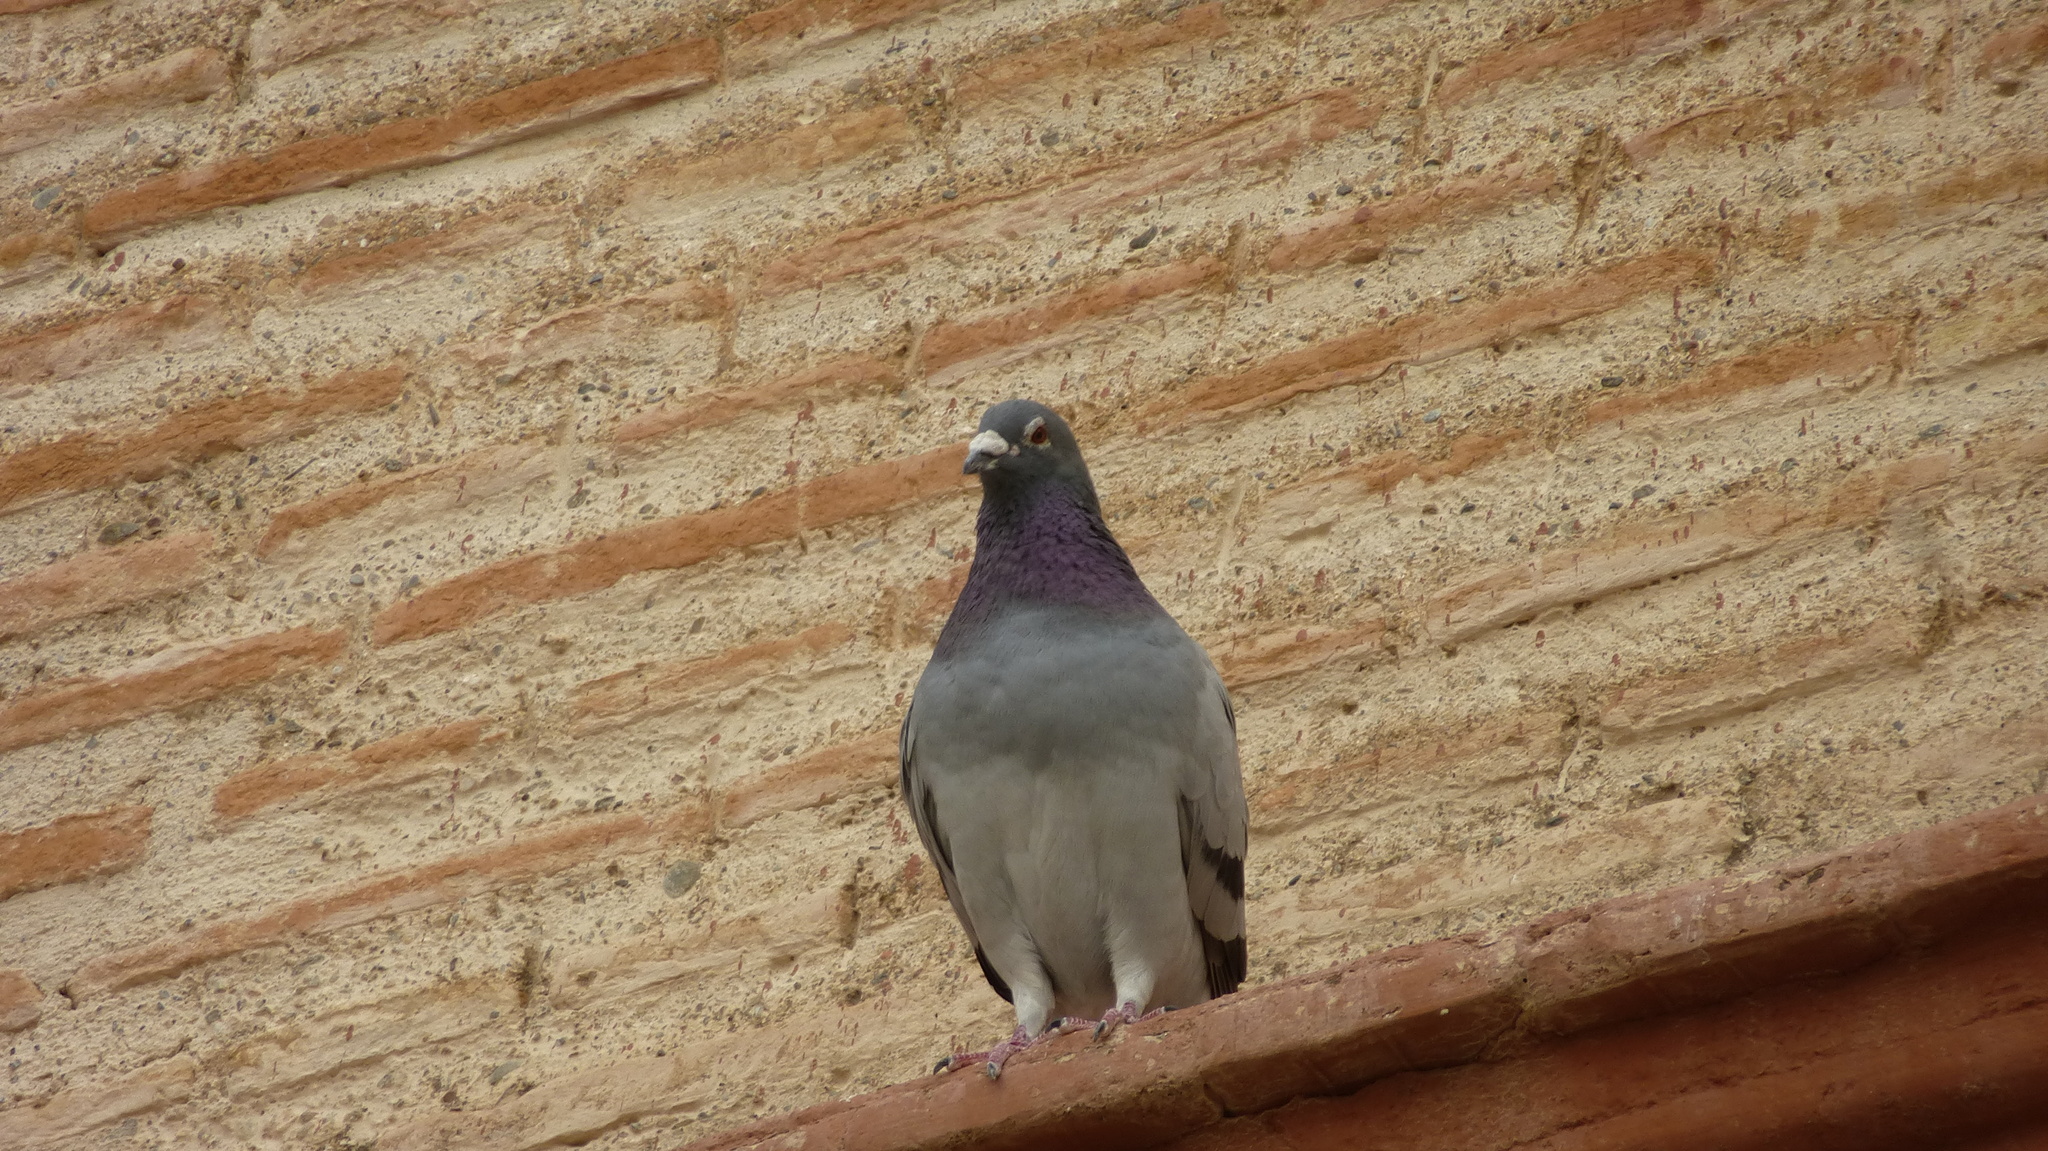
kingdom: Animalia
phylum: Chordata
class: Aves
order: Columbiformes
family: Columbidae
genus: Columba
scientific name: Columba livia
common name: Rock pigeon
